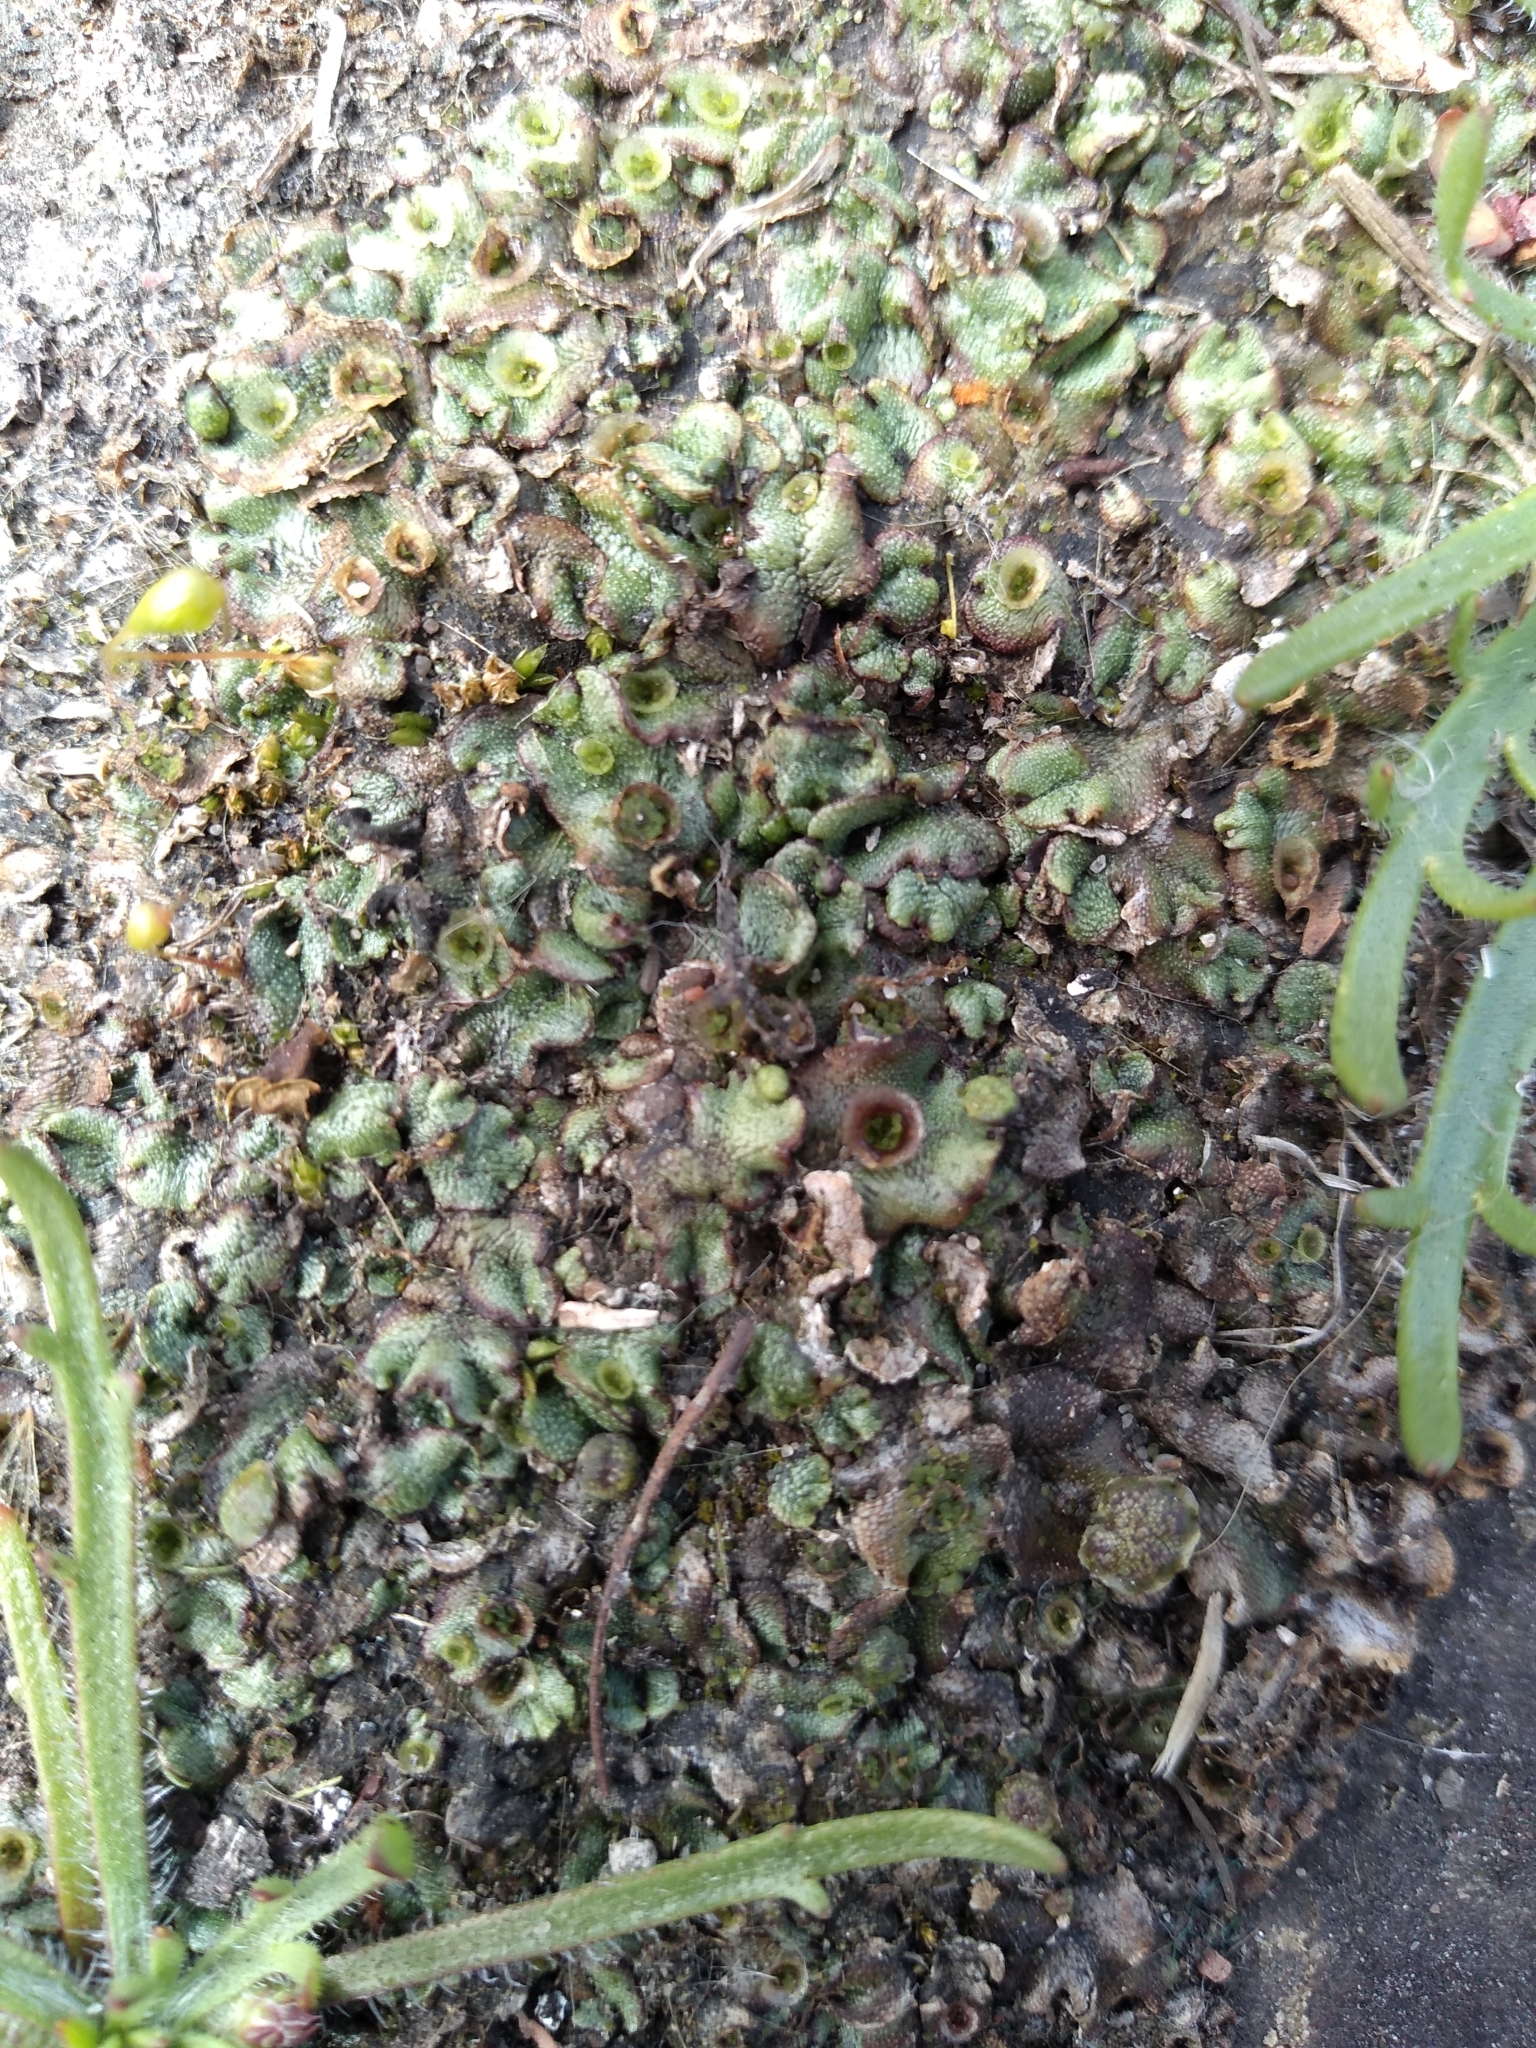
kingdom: Plantae
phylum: Marchantiophyta
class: Marchantiopsida
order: Marchantiales
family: Marchantiaceae
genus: Marchantia
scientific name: Marchantia polymorpha
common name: Common liverwort
